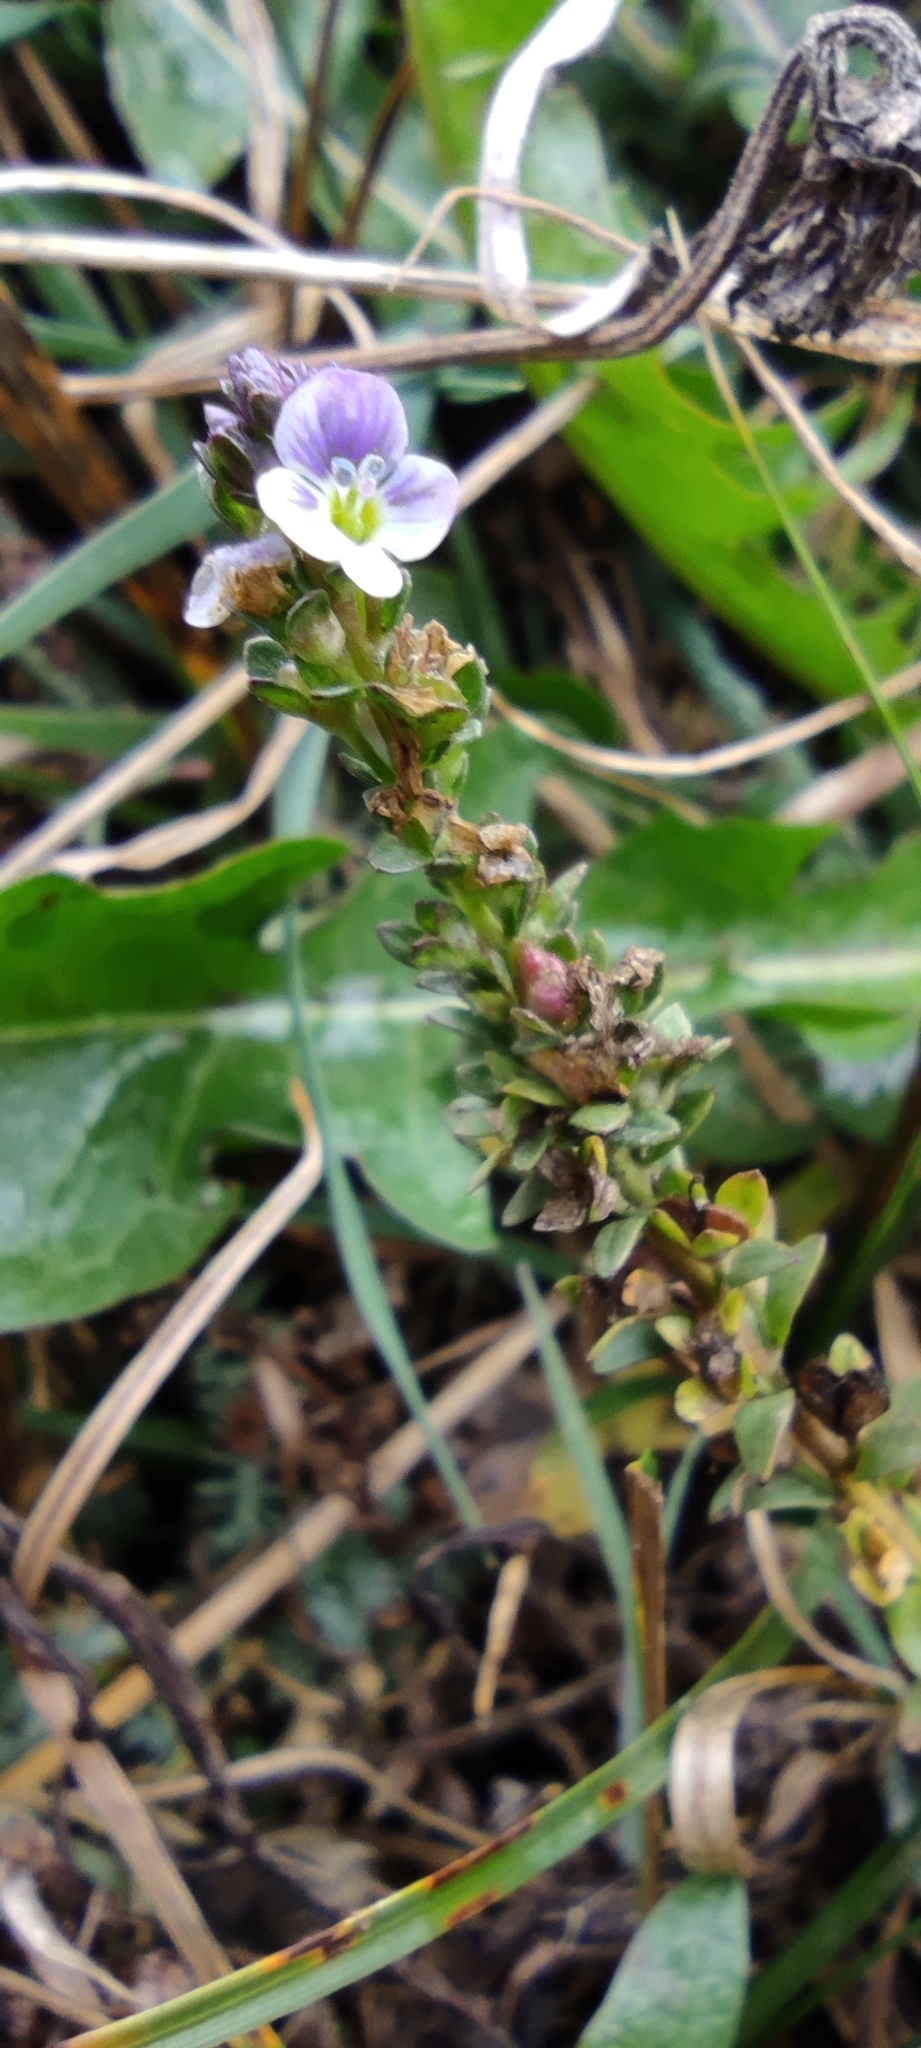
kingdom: Plantae
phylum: Tracheophyta
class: Magnoliopsida
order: Lamiales
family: Plantaginaceae
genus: Veronica
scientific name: Veronica serpyllifolia
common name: Thyme-leaved speedwell
